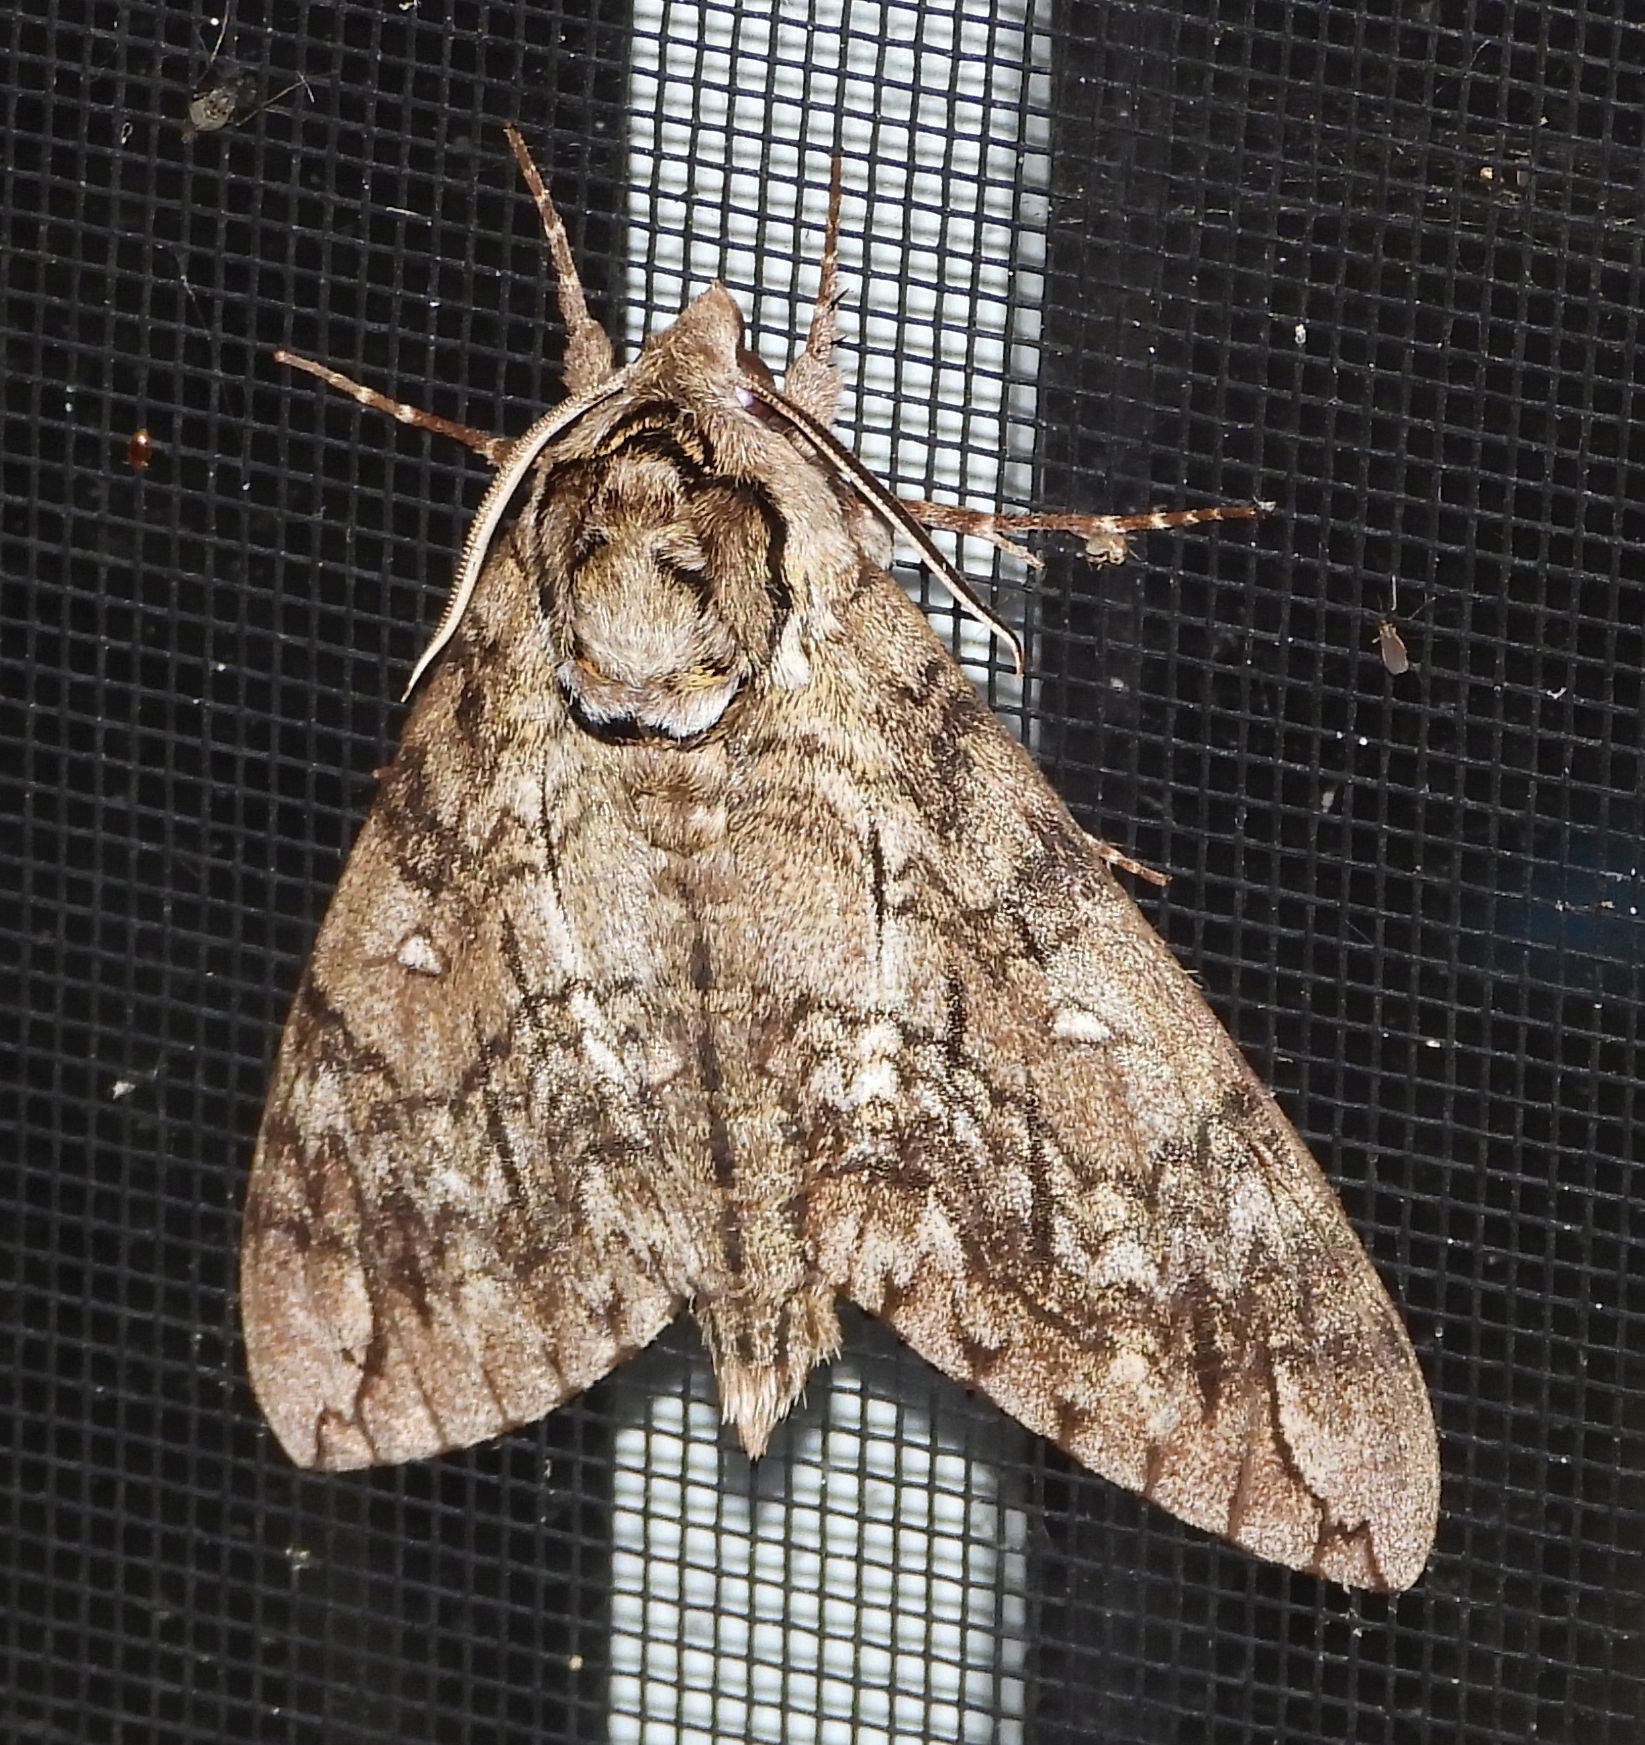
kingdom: Animalia
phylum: Arthropoda
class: Insecta
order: Lepidoptera
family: Sphingidae
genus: Ceratomia
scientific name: Ceratomia undulosa
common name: Waved sphinx
